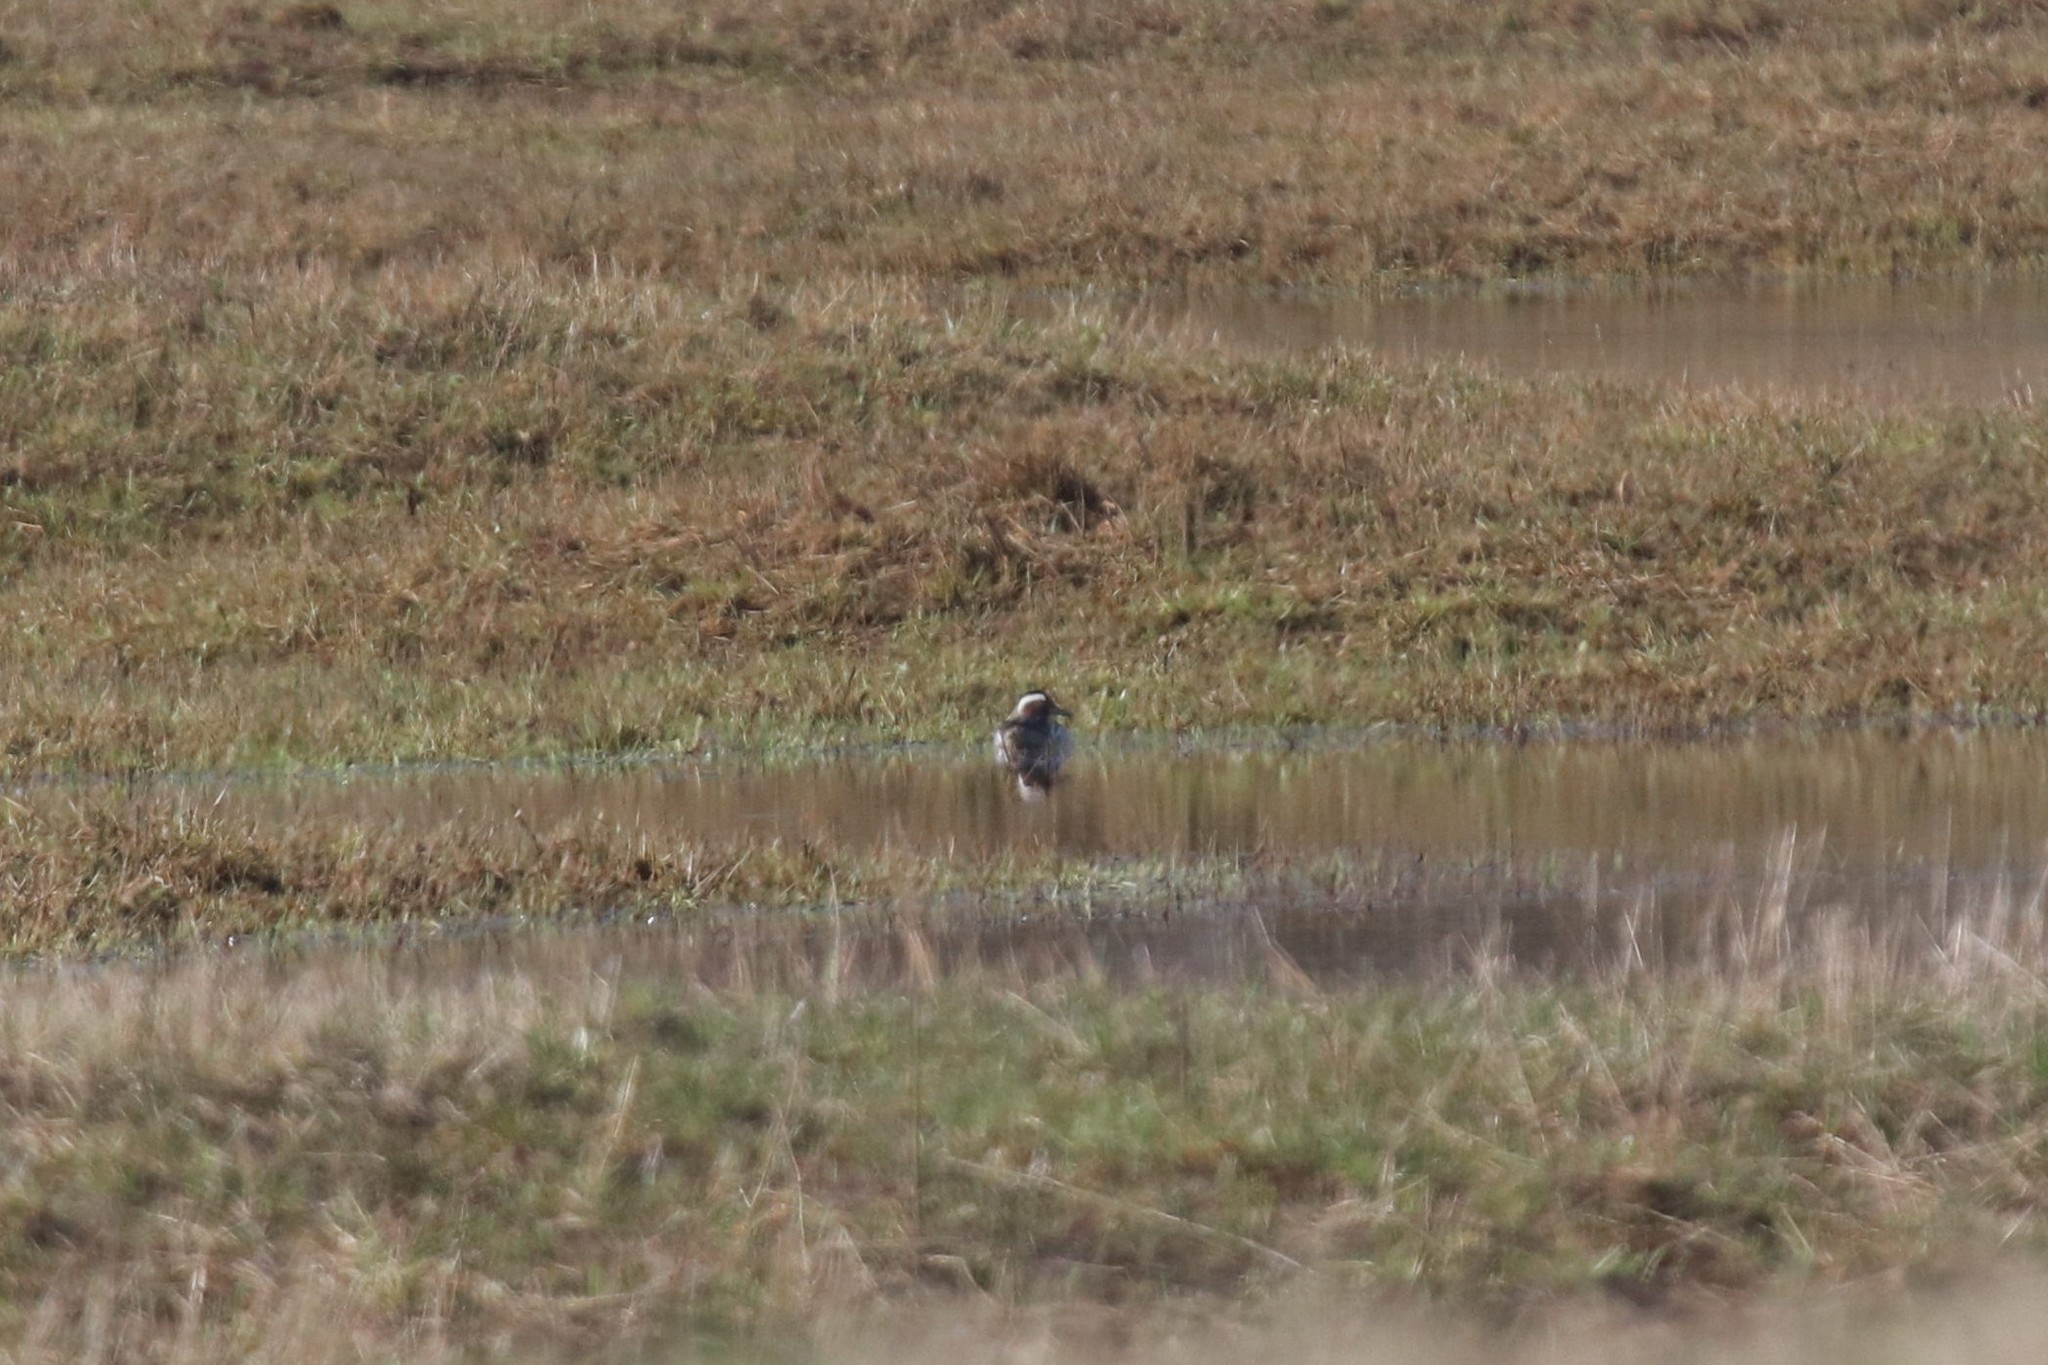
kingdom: Animalia
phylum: Chordata
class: Aves
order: Anseriformes
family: Anatidae
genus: Spatula
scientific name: Spatula querquedula
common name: Garganey
